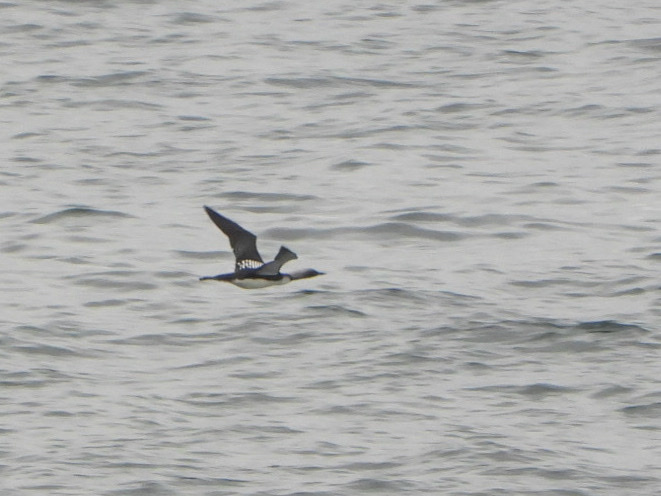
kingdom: Animalia
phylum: Chordata
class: Aves
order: Gaviiformes
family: Gaviidae
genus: Gavia
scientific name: Gavia pacifica
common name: Pacific loon
